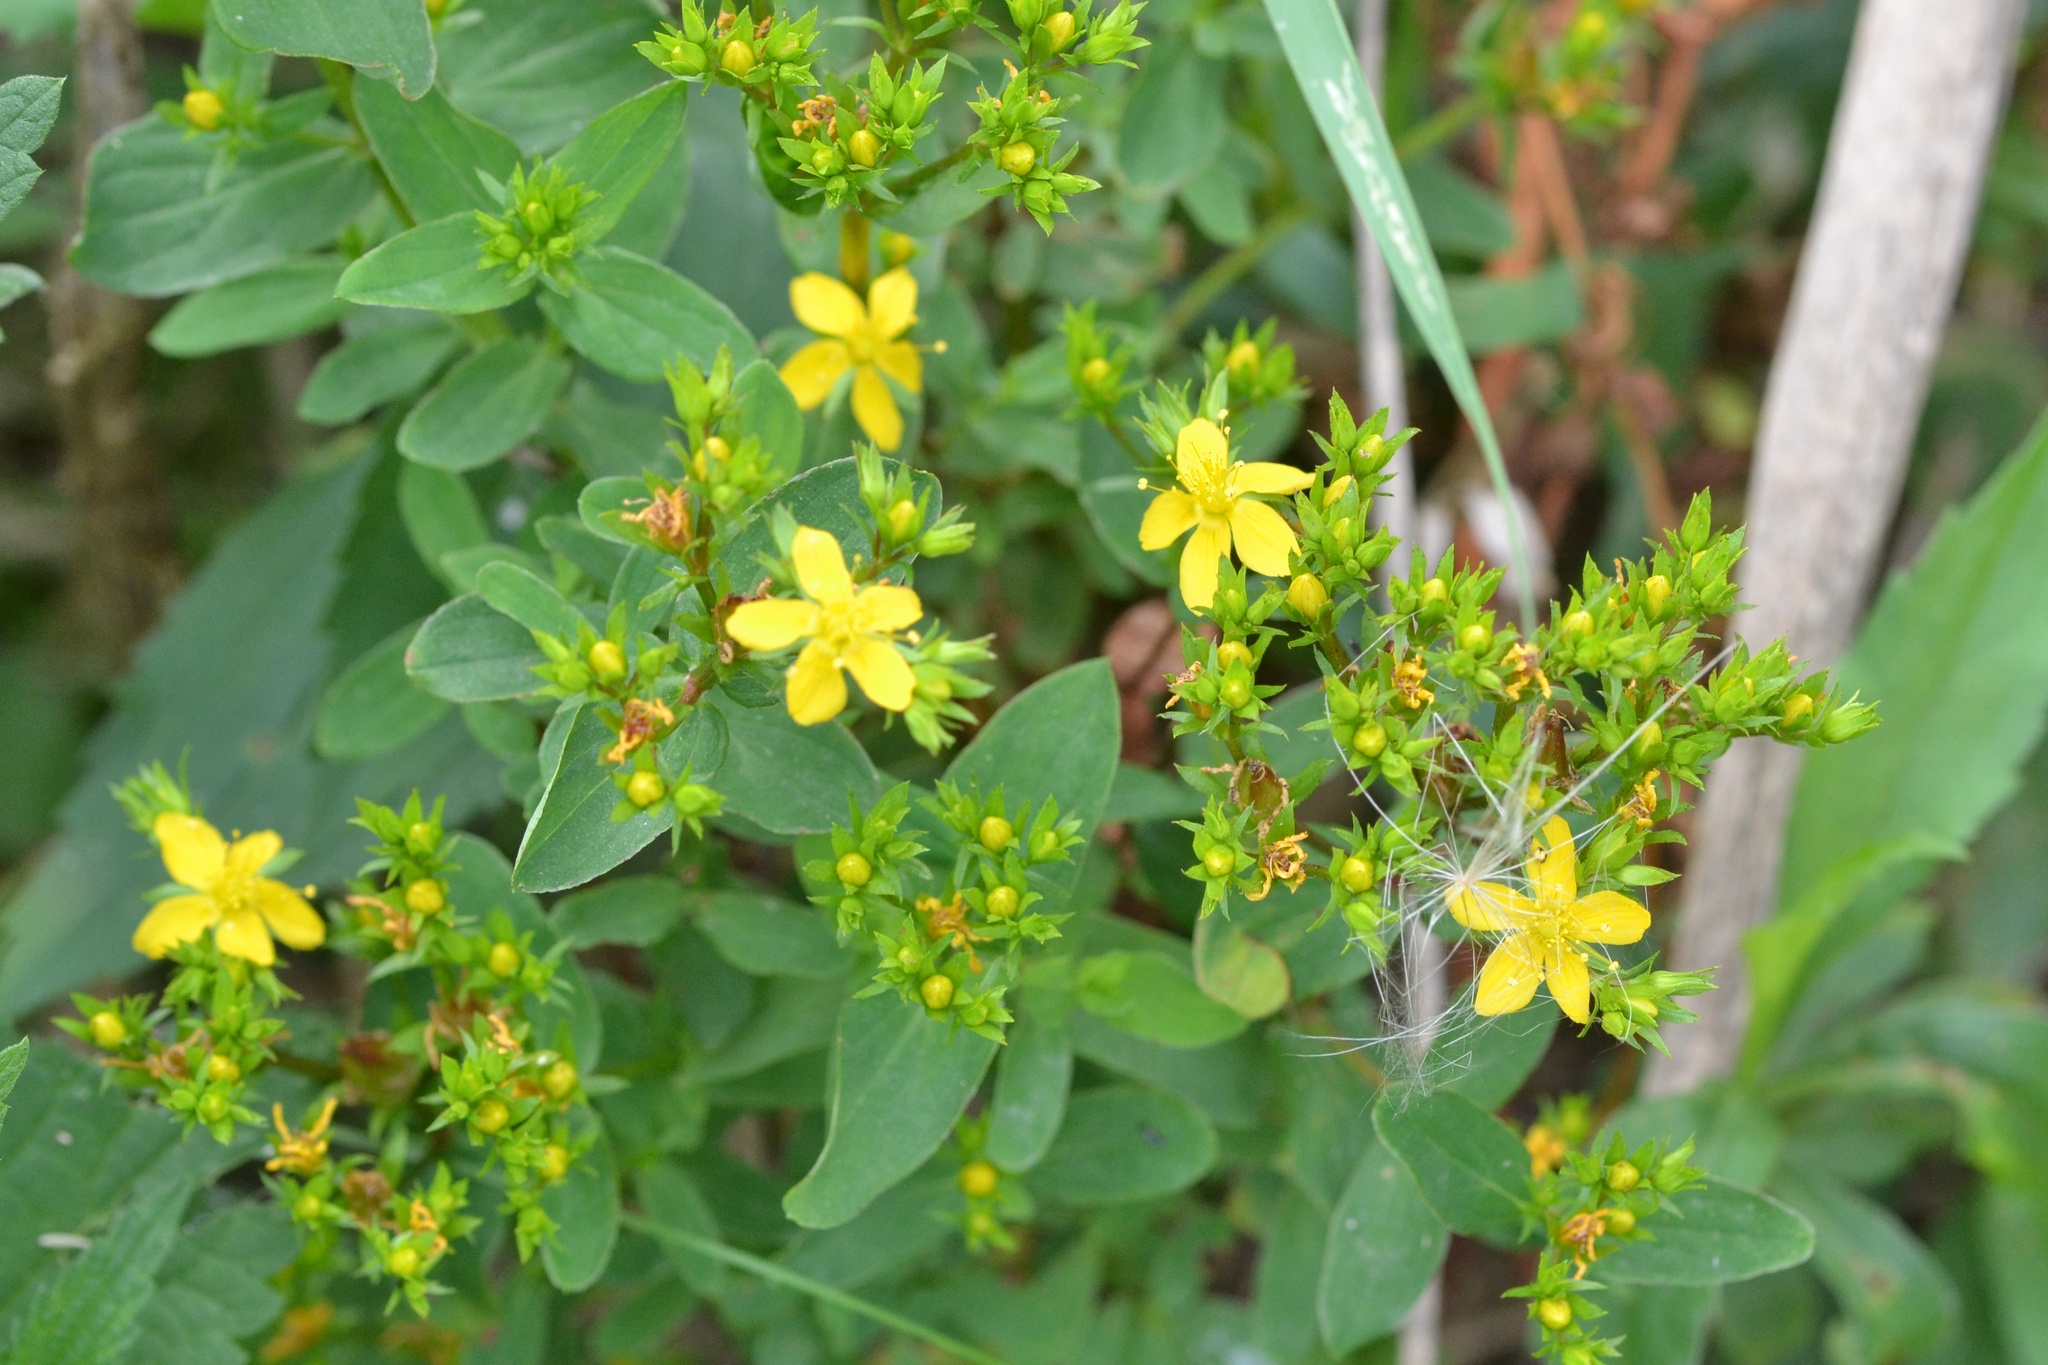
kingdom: Plantae
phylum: Tracheophyta
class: Magnoliopsida
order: Malpighiales
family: Hypericaceae
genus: Hypericum
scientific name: Hypericum tetrapterum
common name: Square-stalked st. john's-wort
